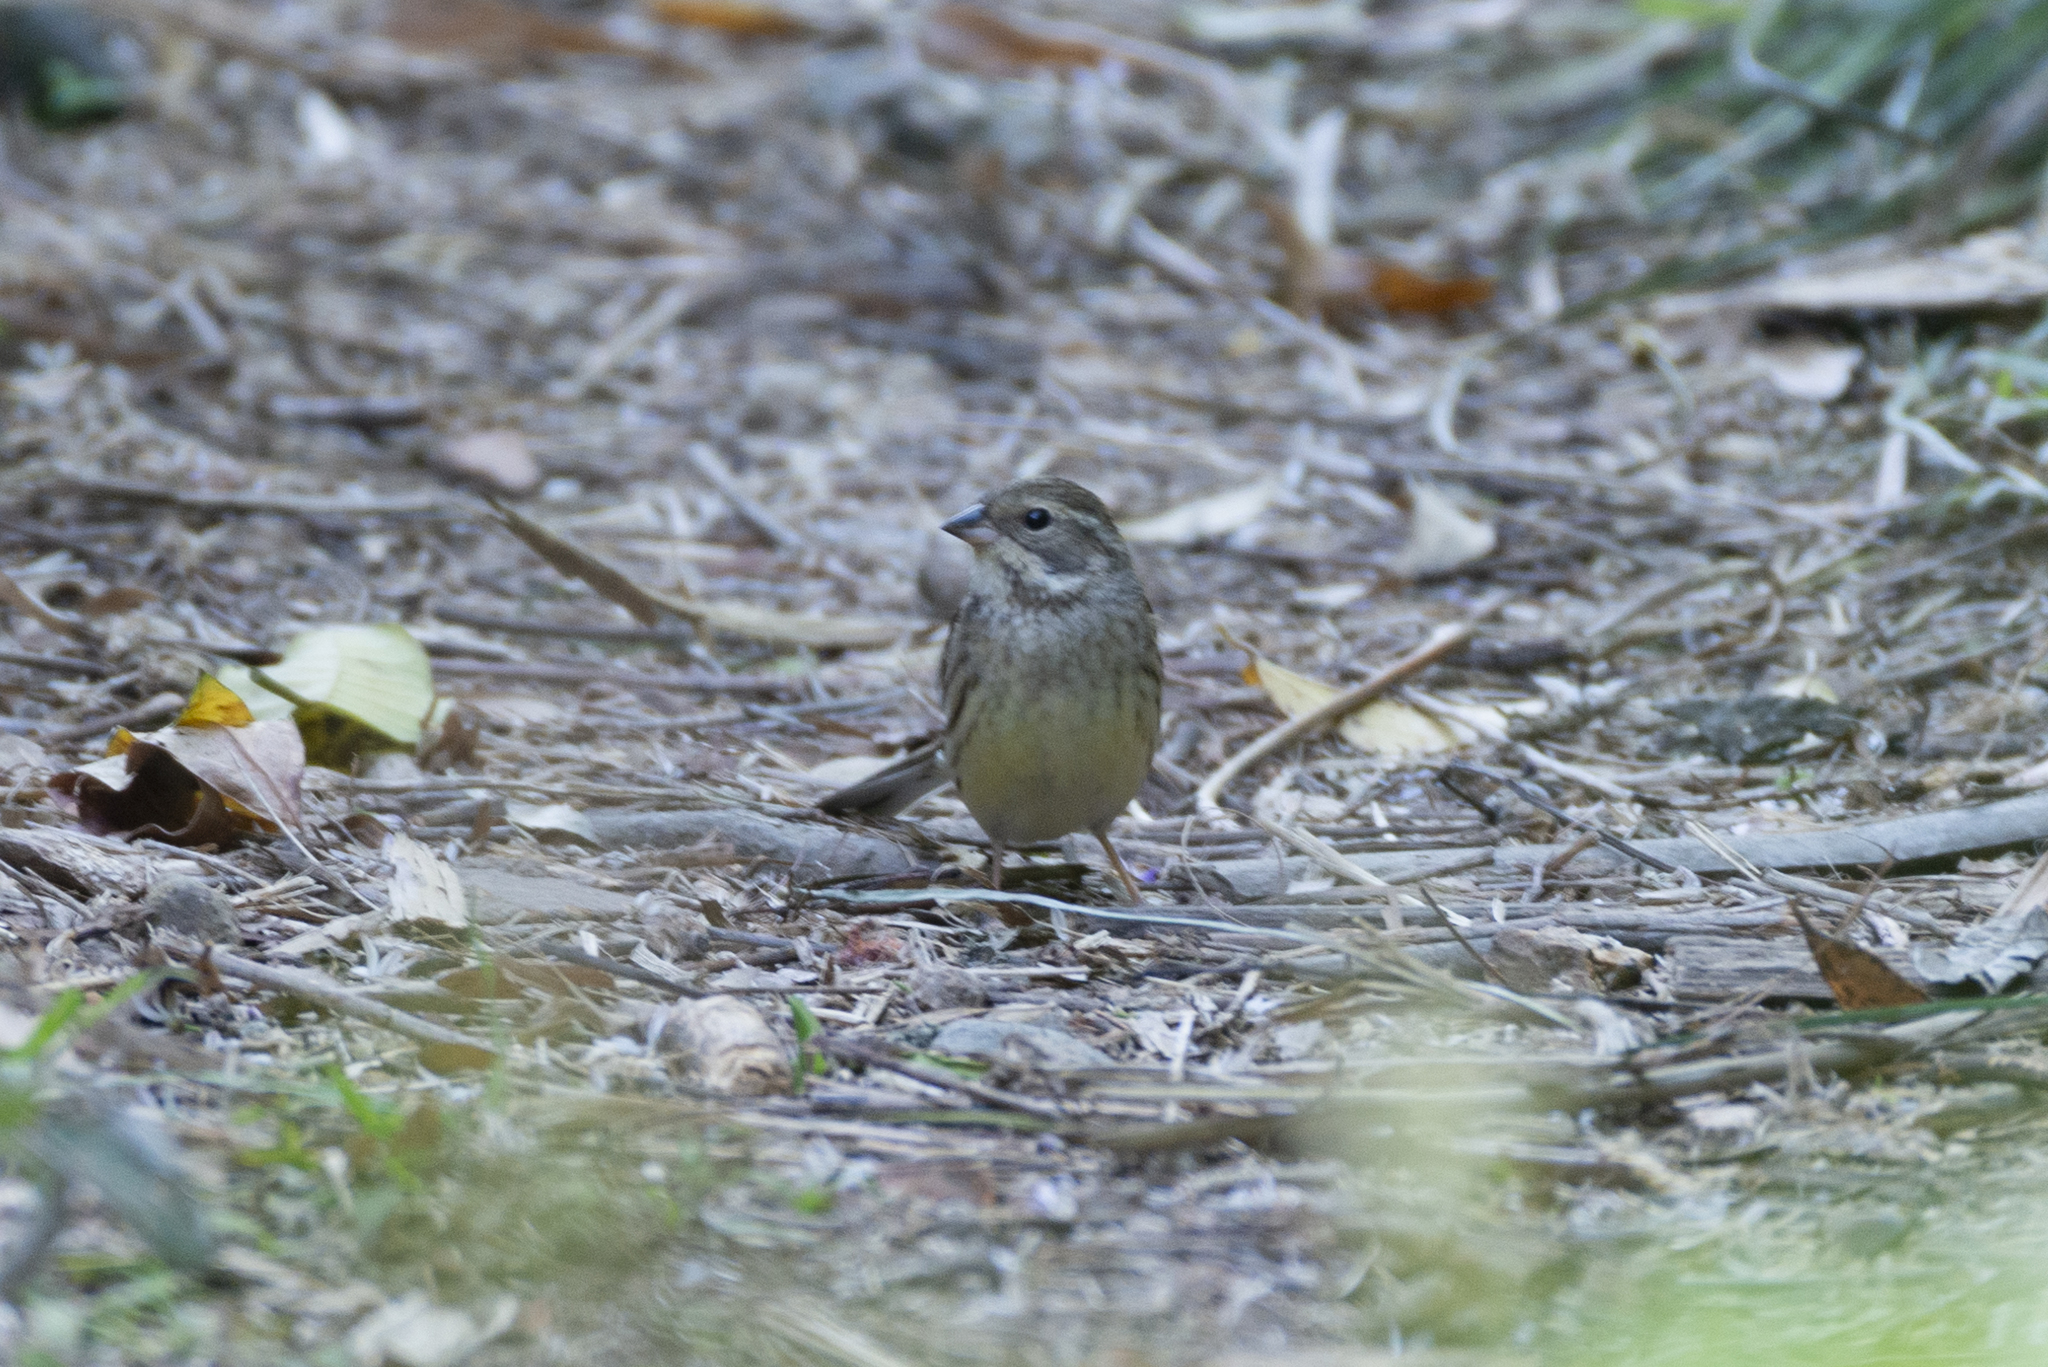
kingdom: Animalia
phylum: Chordata
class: Aves
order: Passeriformes
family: Emberizidae
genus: Emberiza
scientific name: Emberiza spodocephala
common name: Black-faced bunting
